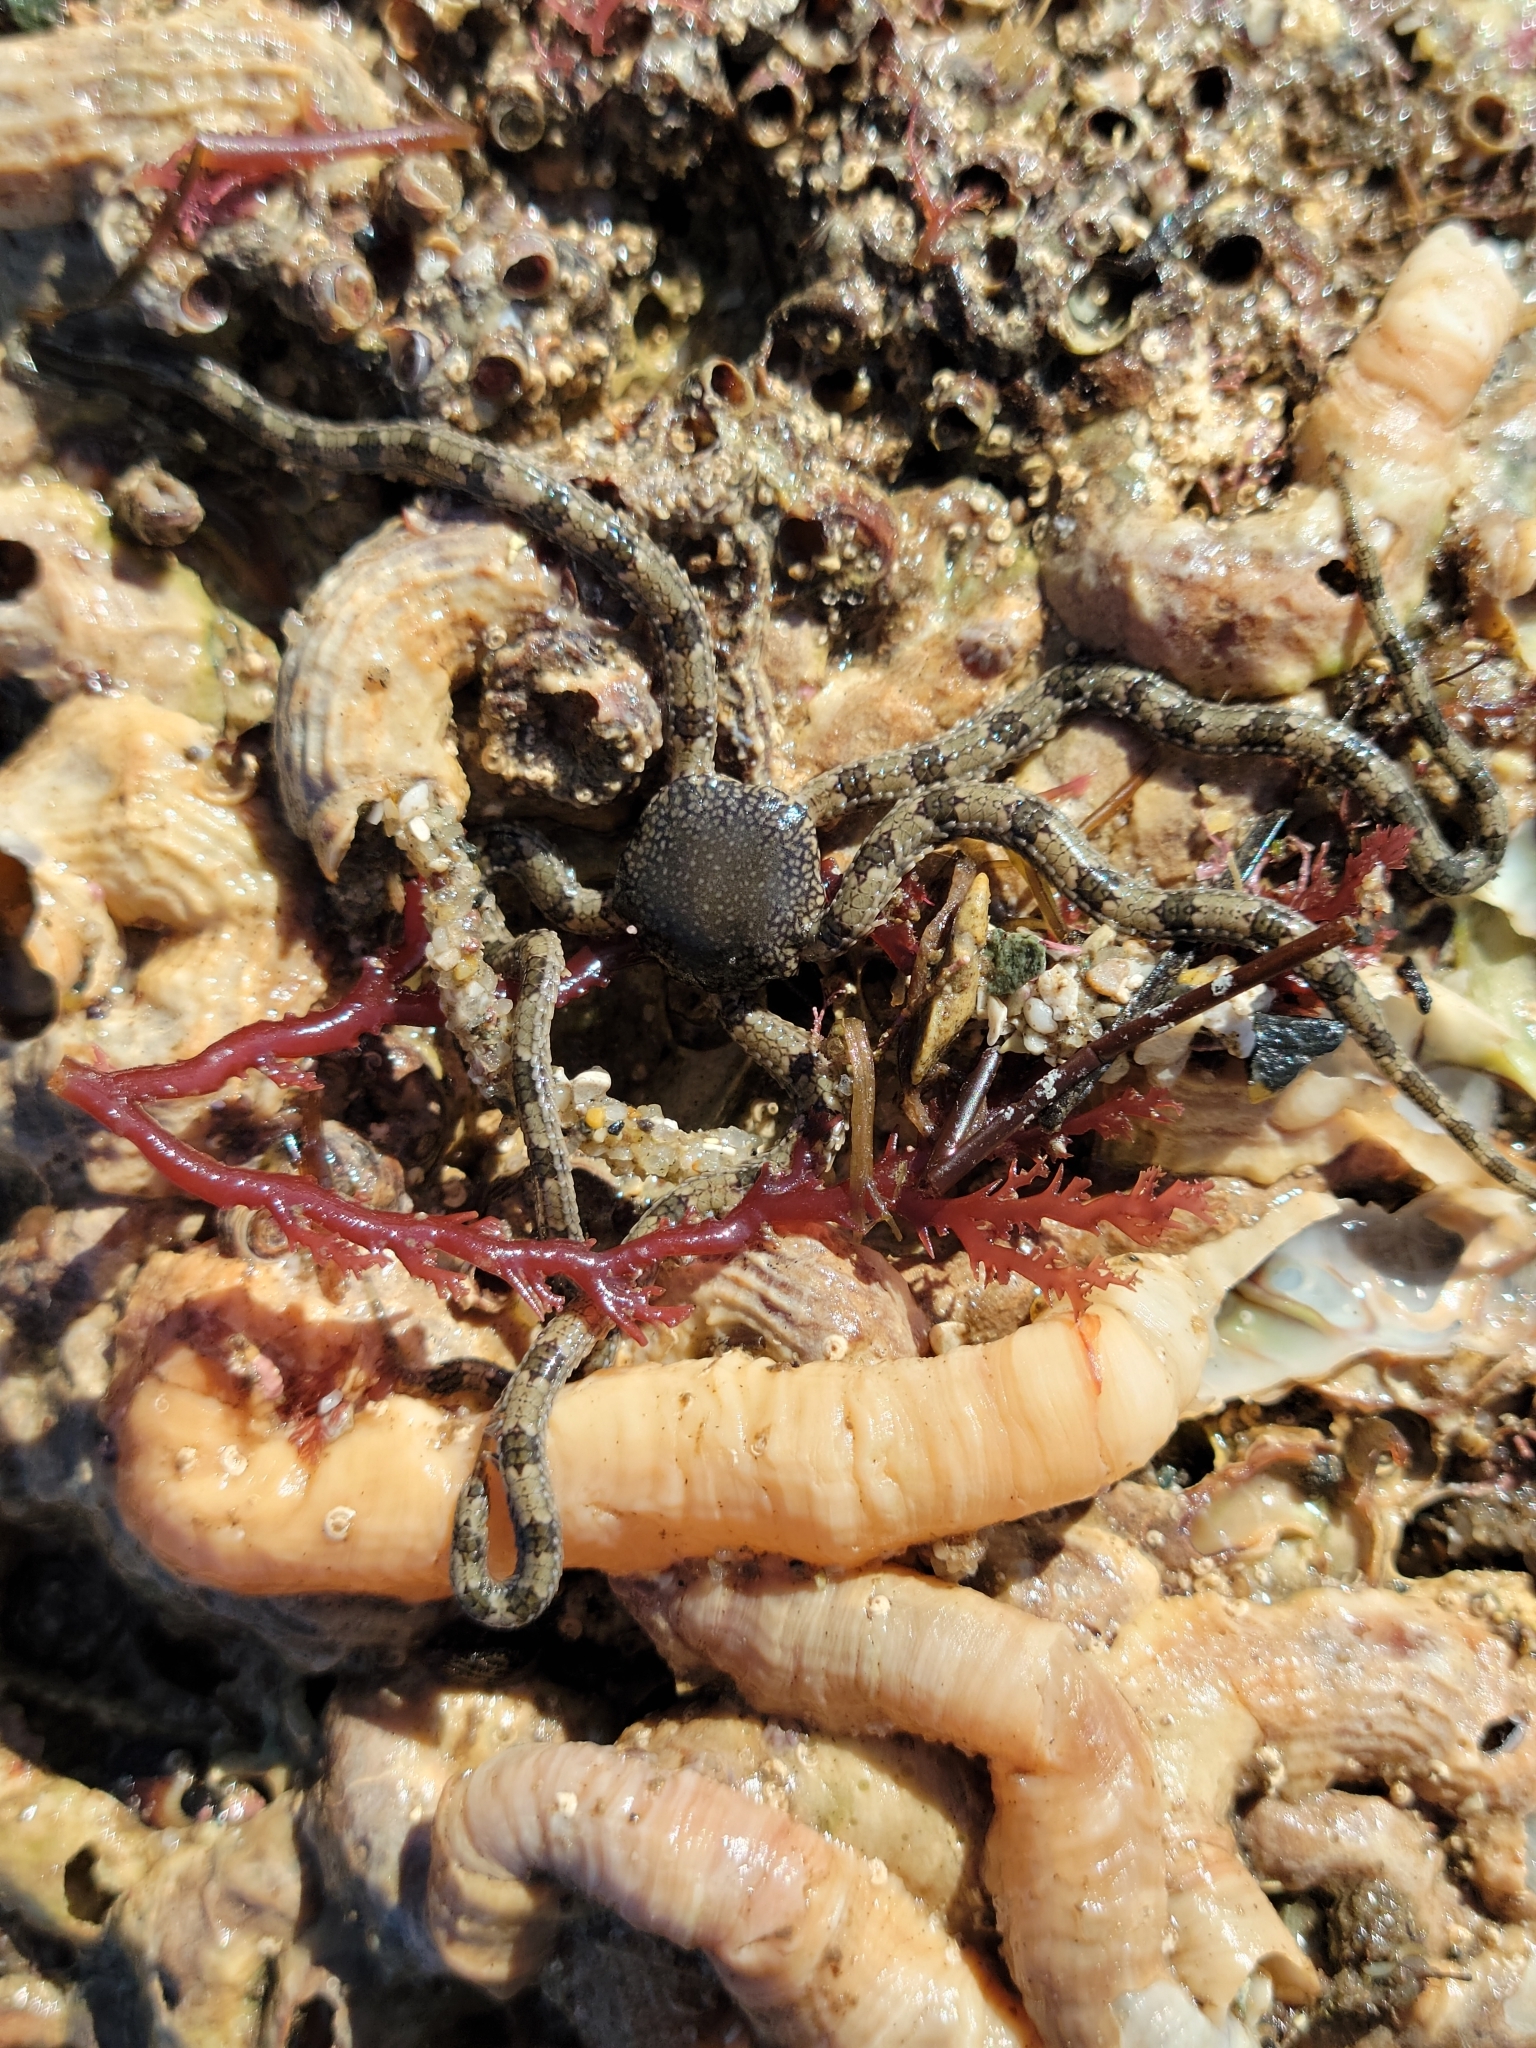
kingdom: Animalia
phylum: Echinodermata
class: Ophiuroidea
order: Amphilepidida
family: Ophionereididae
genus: Ophionereis
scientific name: Ophionereis annulata
